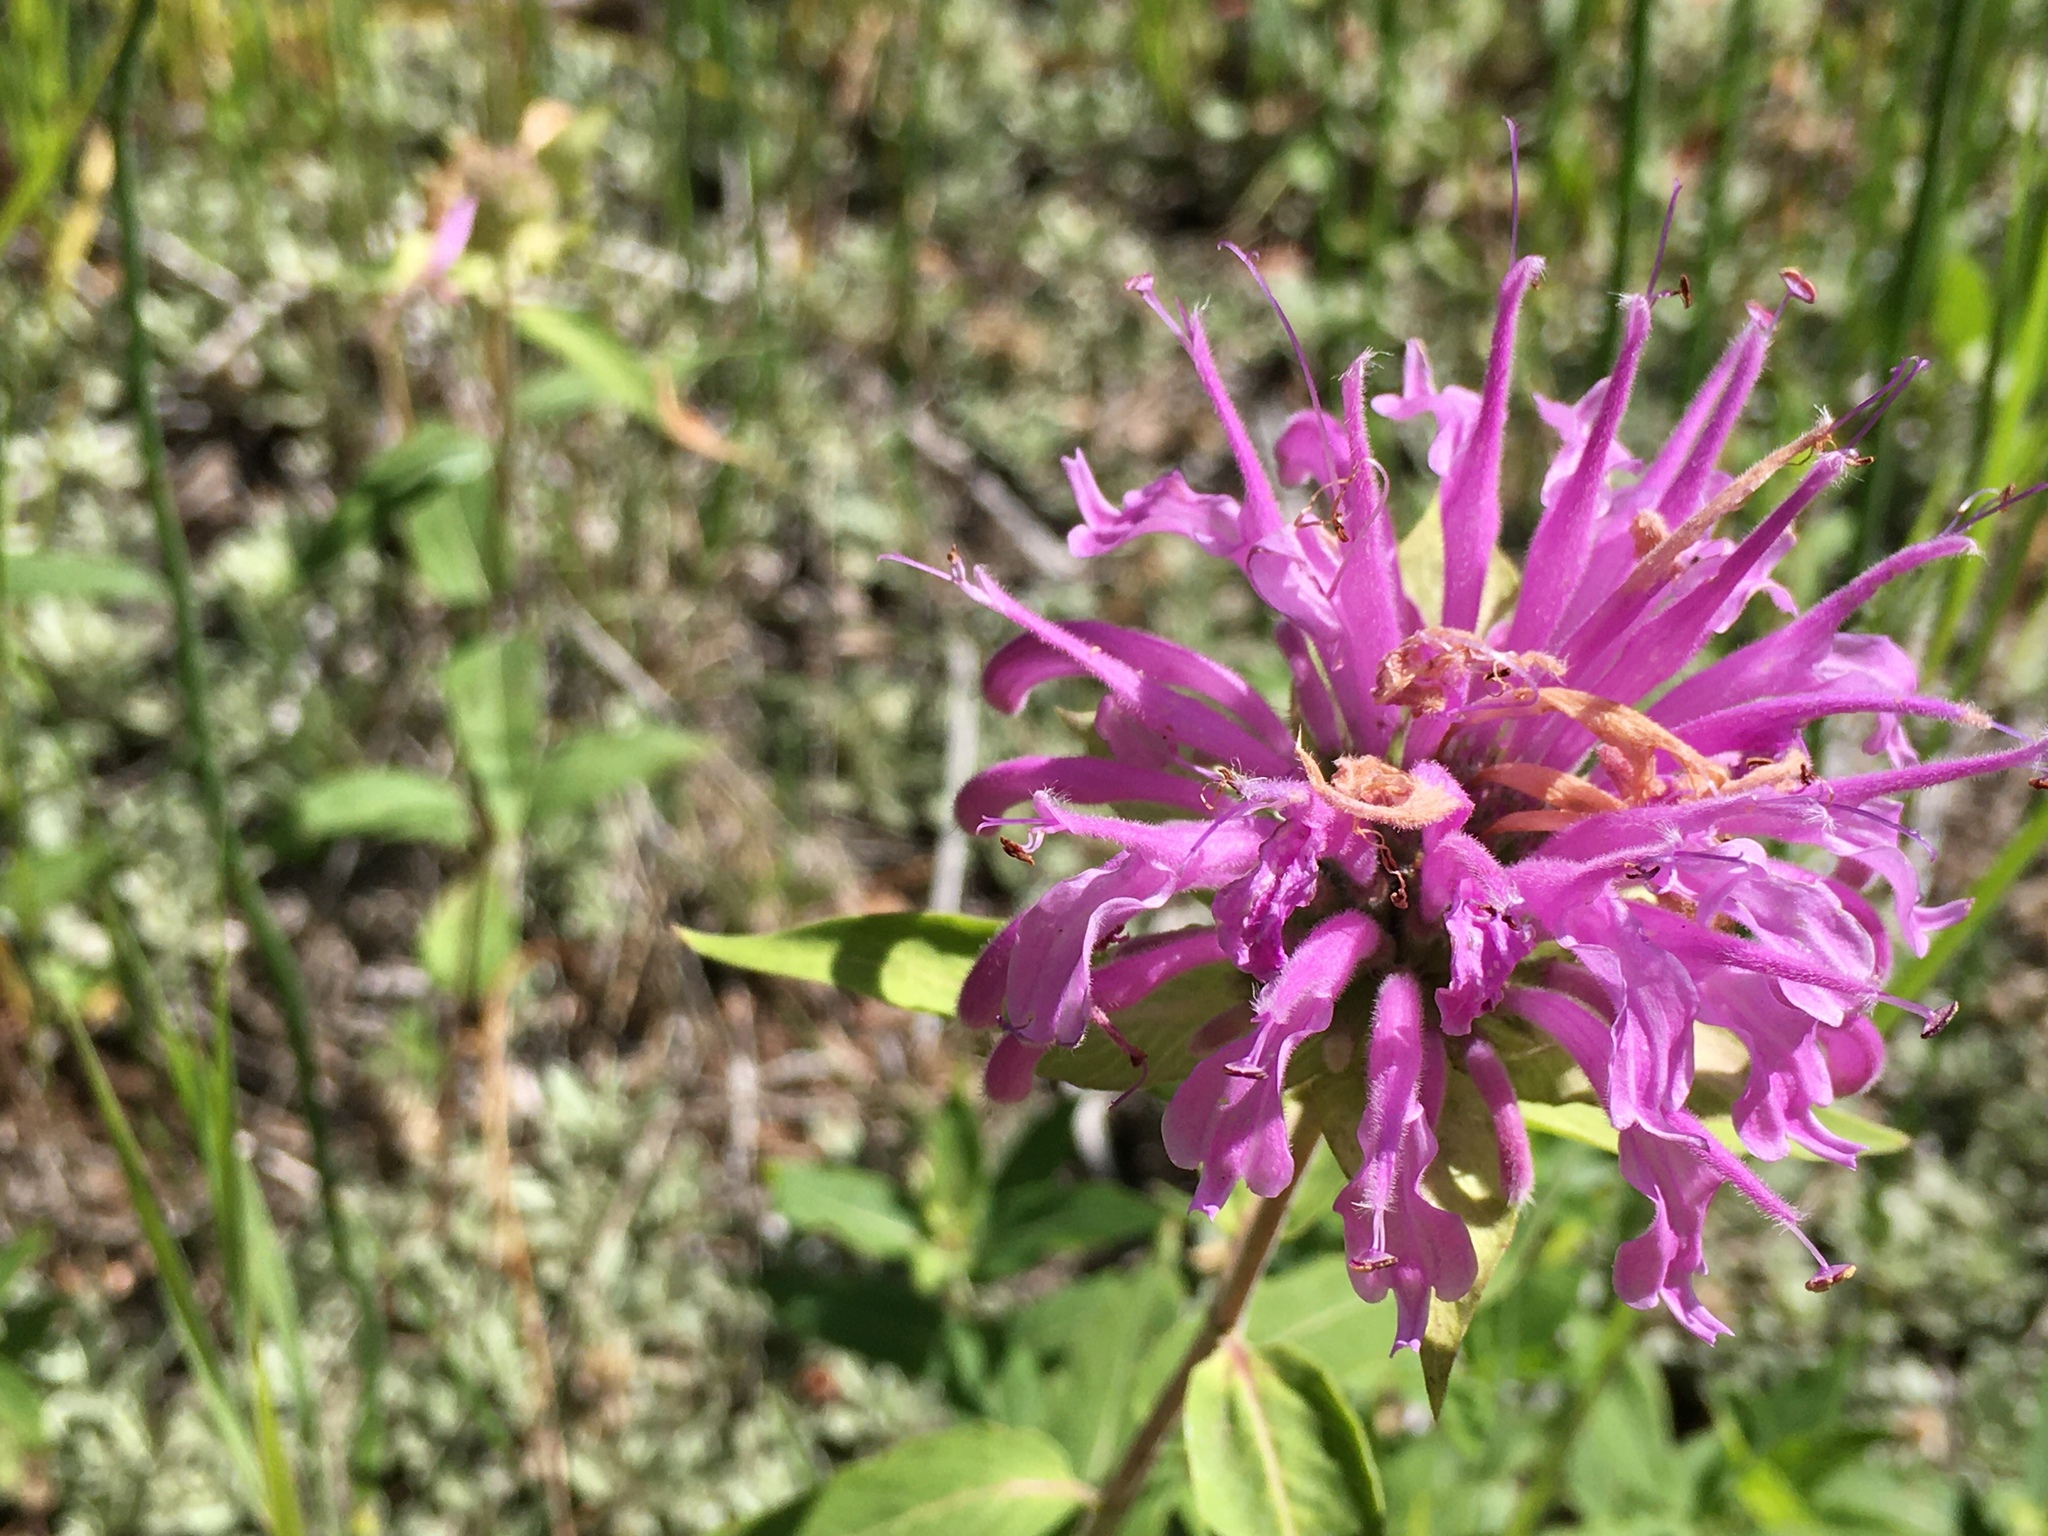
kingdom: Plantae
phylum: Tracheophyta
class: Magnoliopsida
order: Lamiales
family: Lamiaceae
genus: Monarda
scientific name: Monarda fistulosa
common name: Purple beebalm
